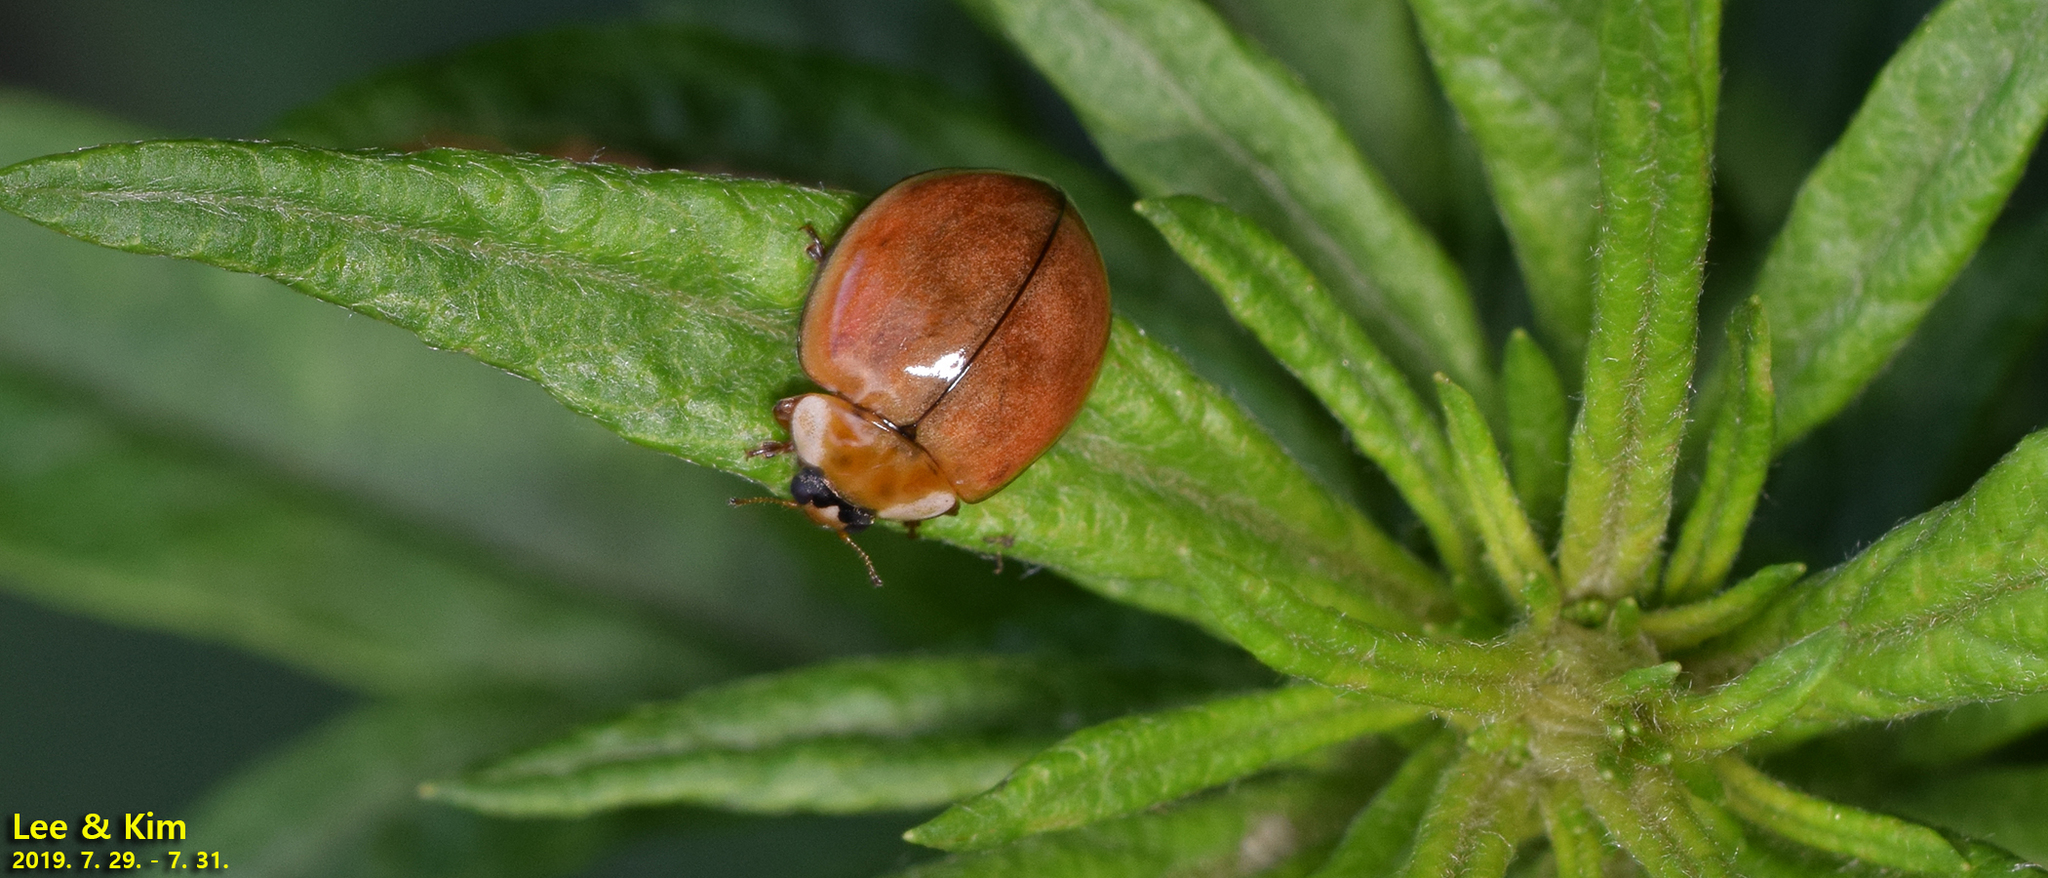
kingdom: Animalia
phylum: Arthropoda
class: Insecta
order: Coleoptera
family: Coccinellidae
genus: Harmonia
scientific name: Harmonia yedoensis
